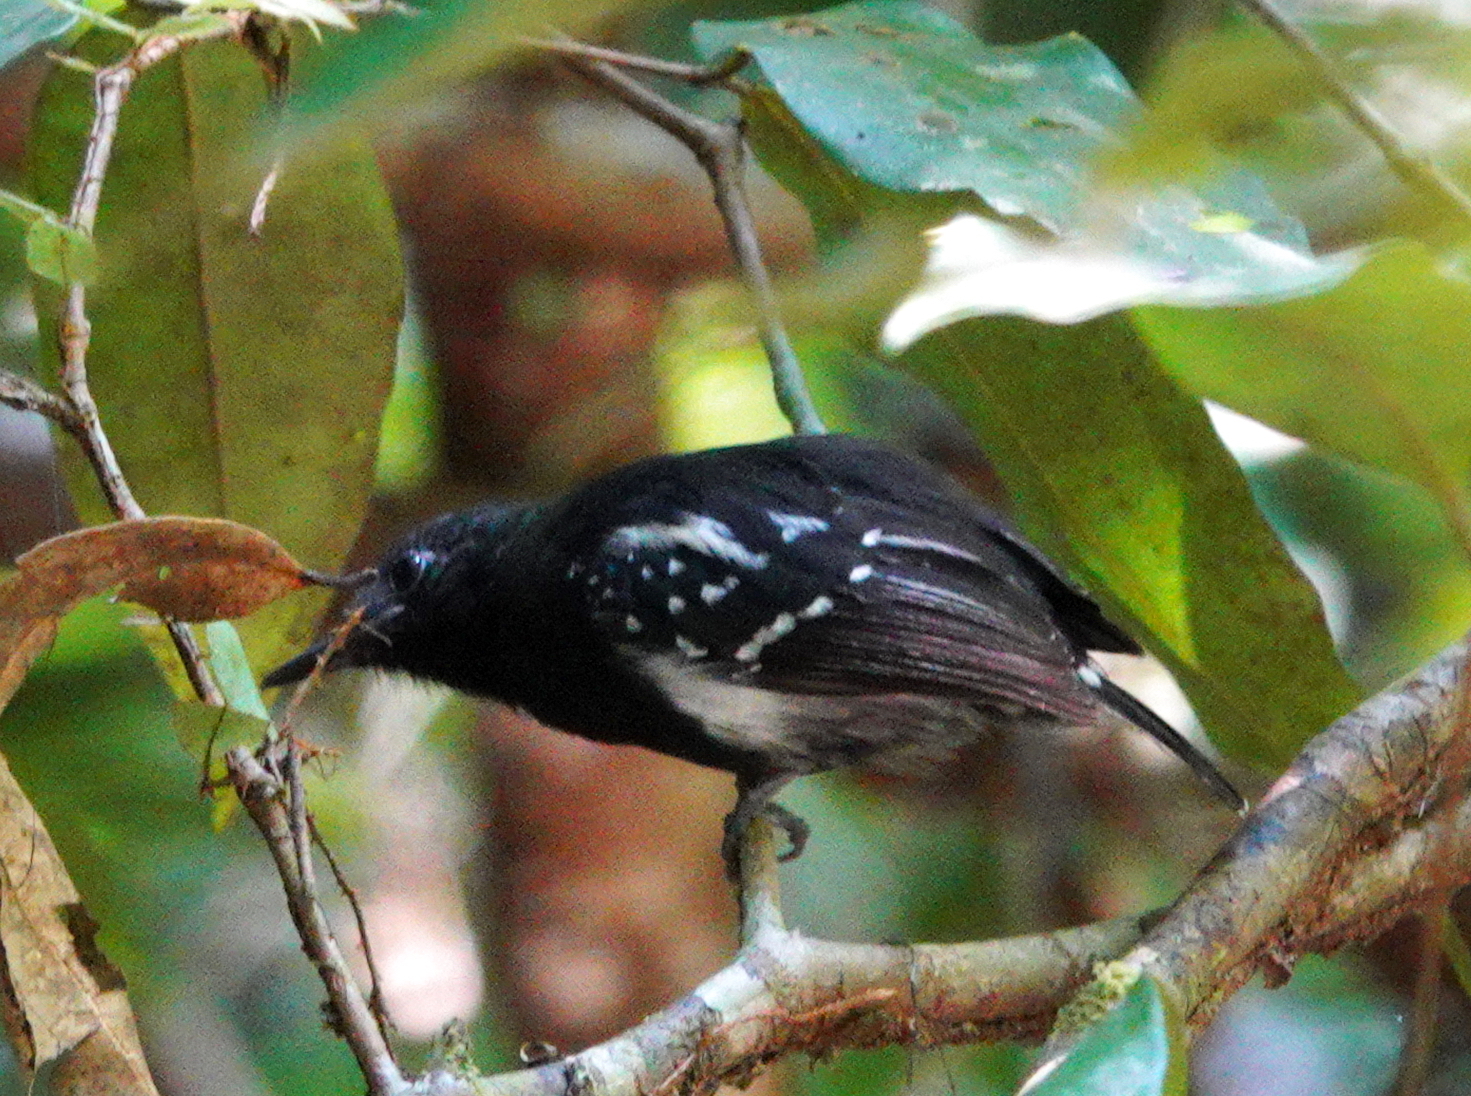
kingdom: Animalia
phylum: Chordata
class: Aves
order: Passeriformes
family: Thamnophilidae
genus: Myrmotherula
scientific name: Myrmotherula axillaris
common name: White-flanked antwren
